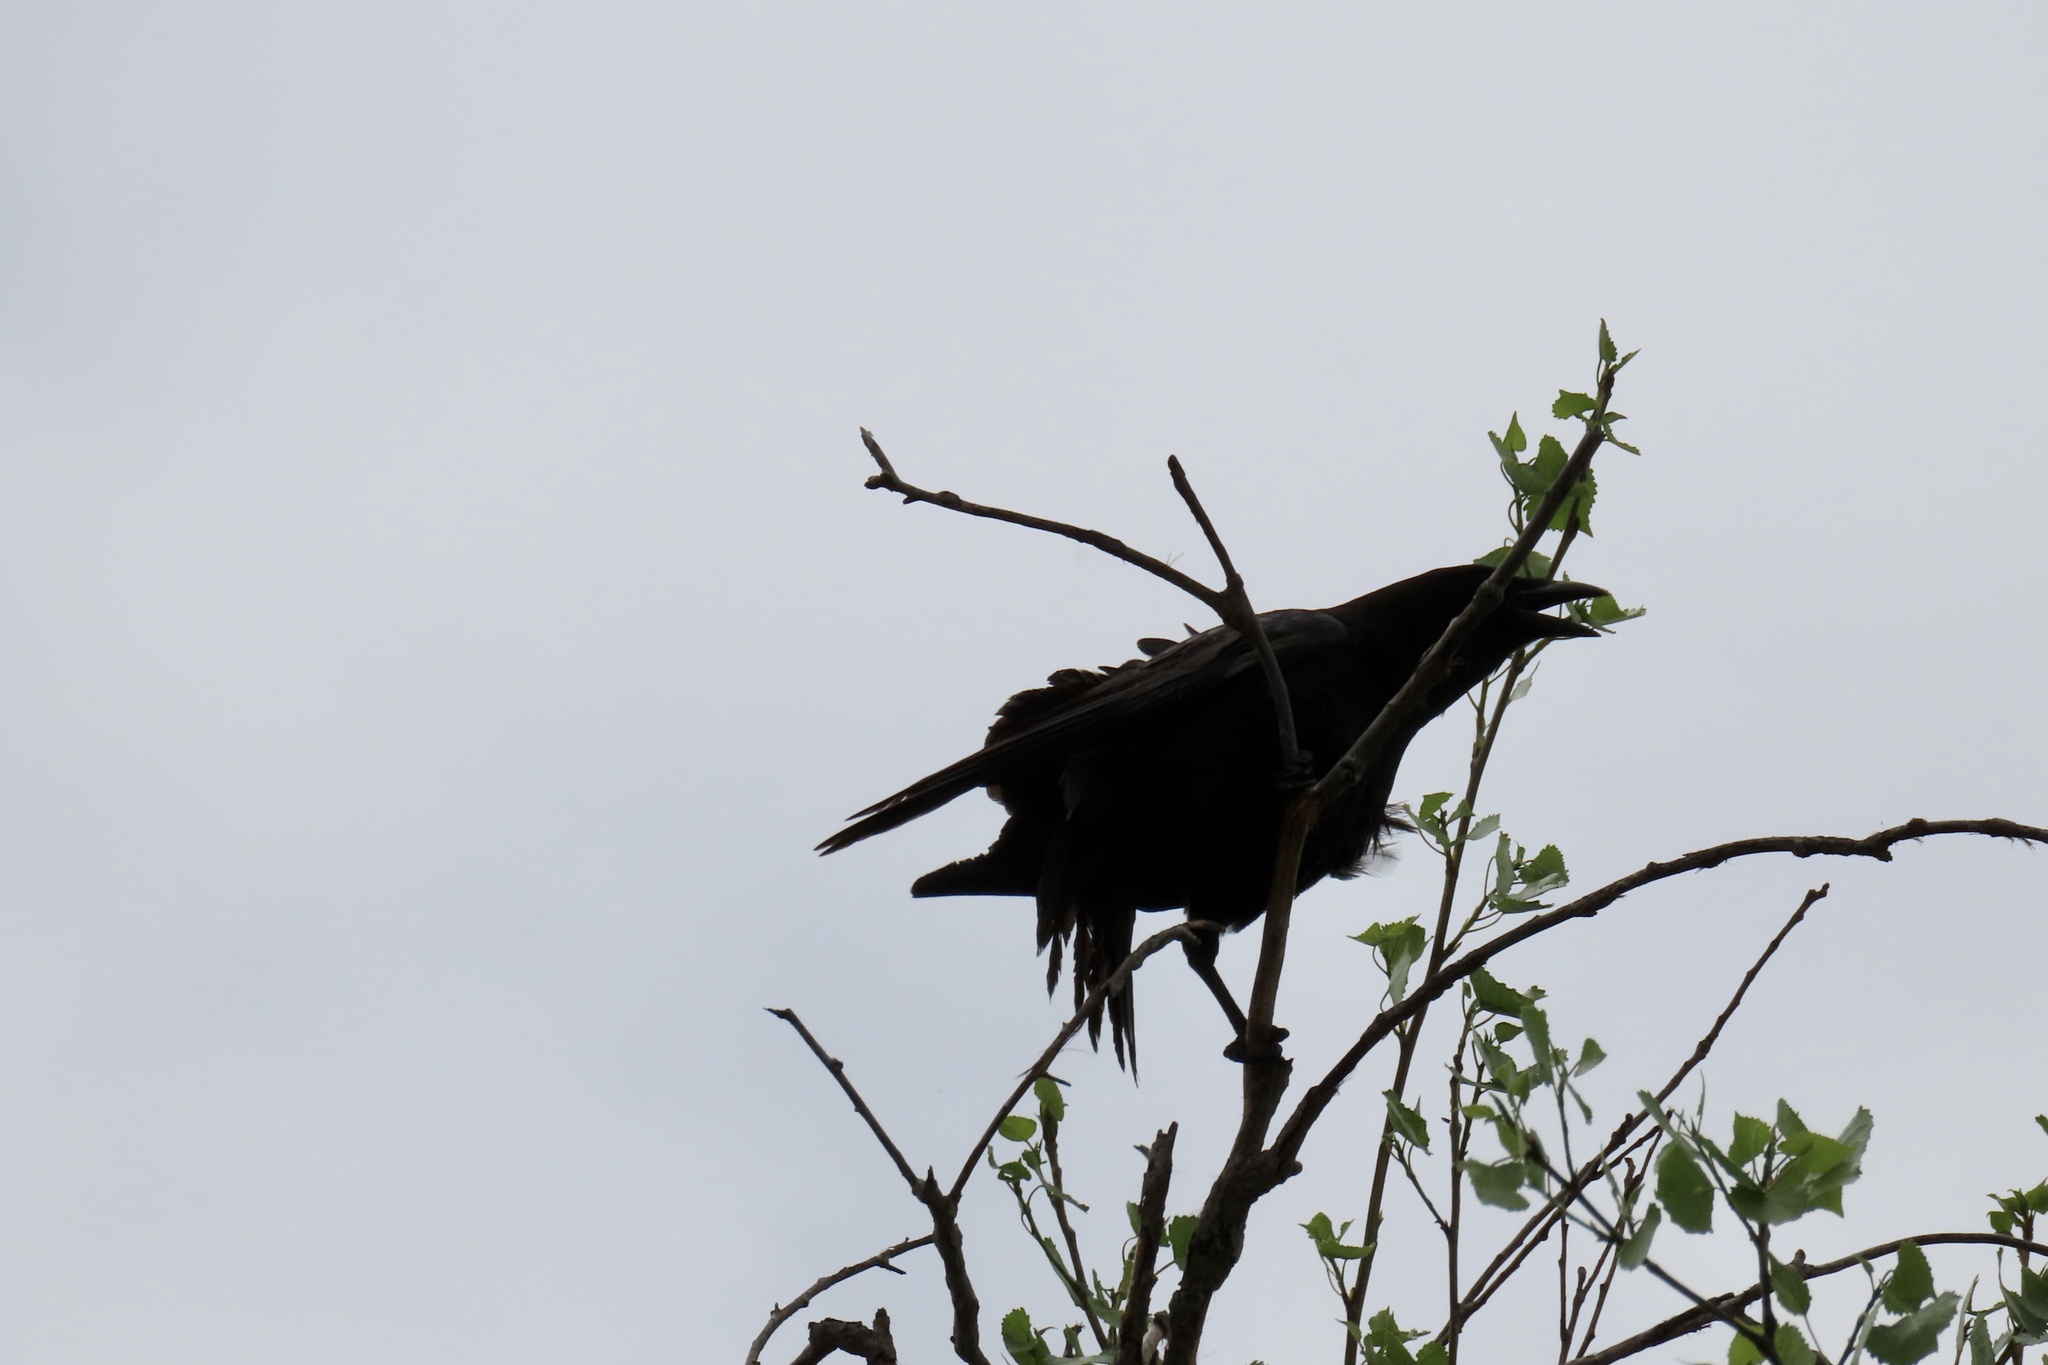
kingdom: Animalia
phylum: Chordata
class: Aves
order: Passeriformes
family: Corvidae
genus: Corvus
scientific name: Corvus brachyrhynchos
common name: American crow
